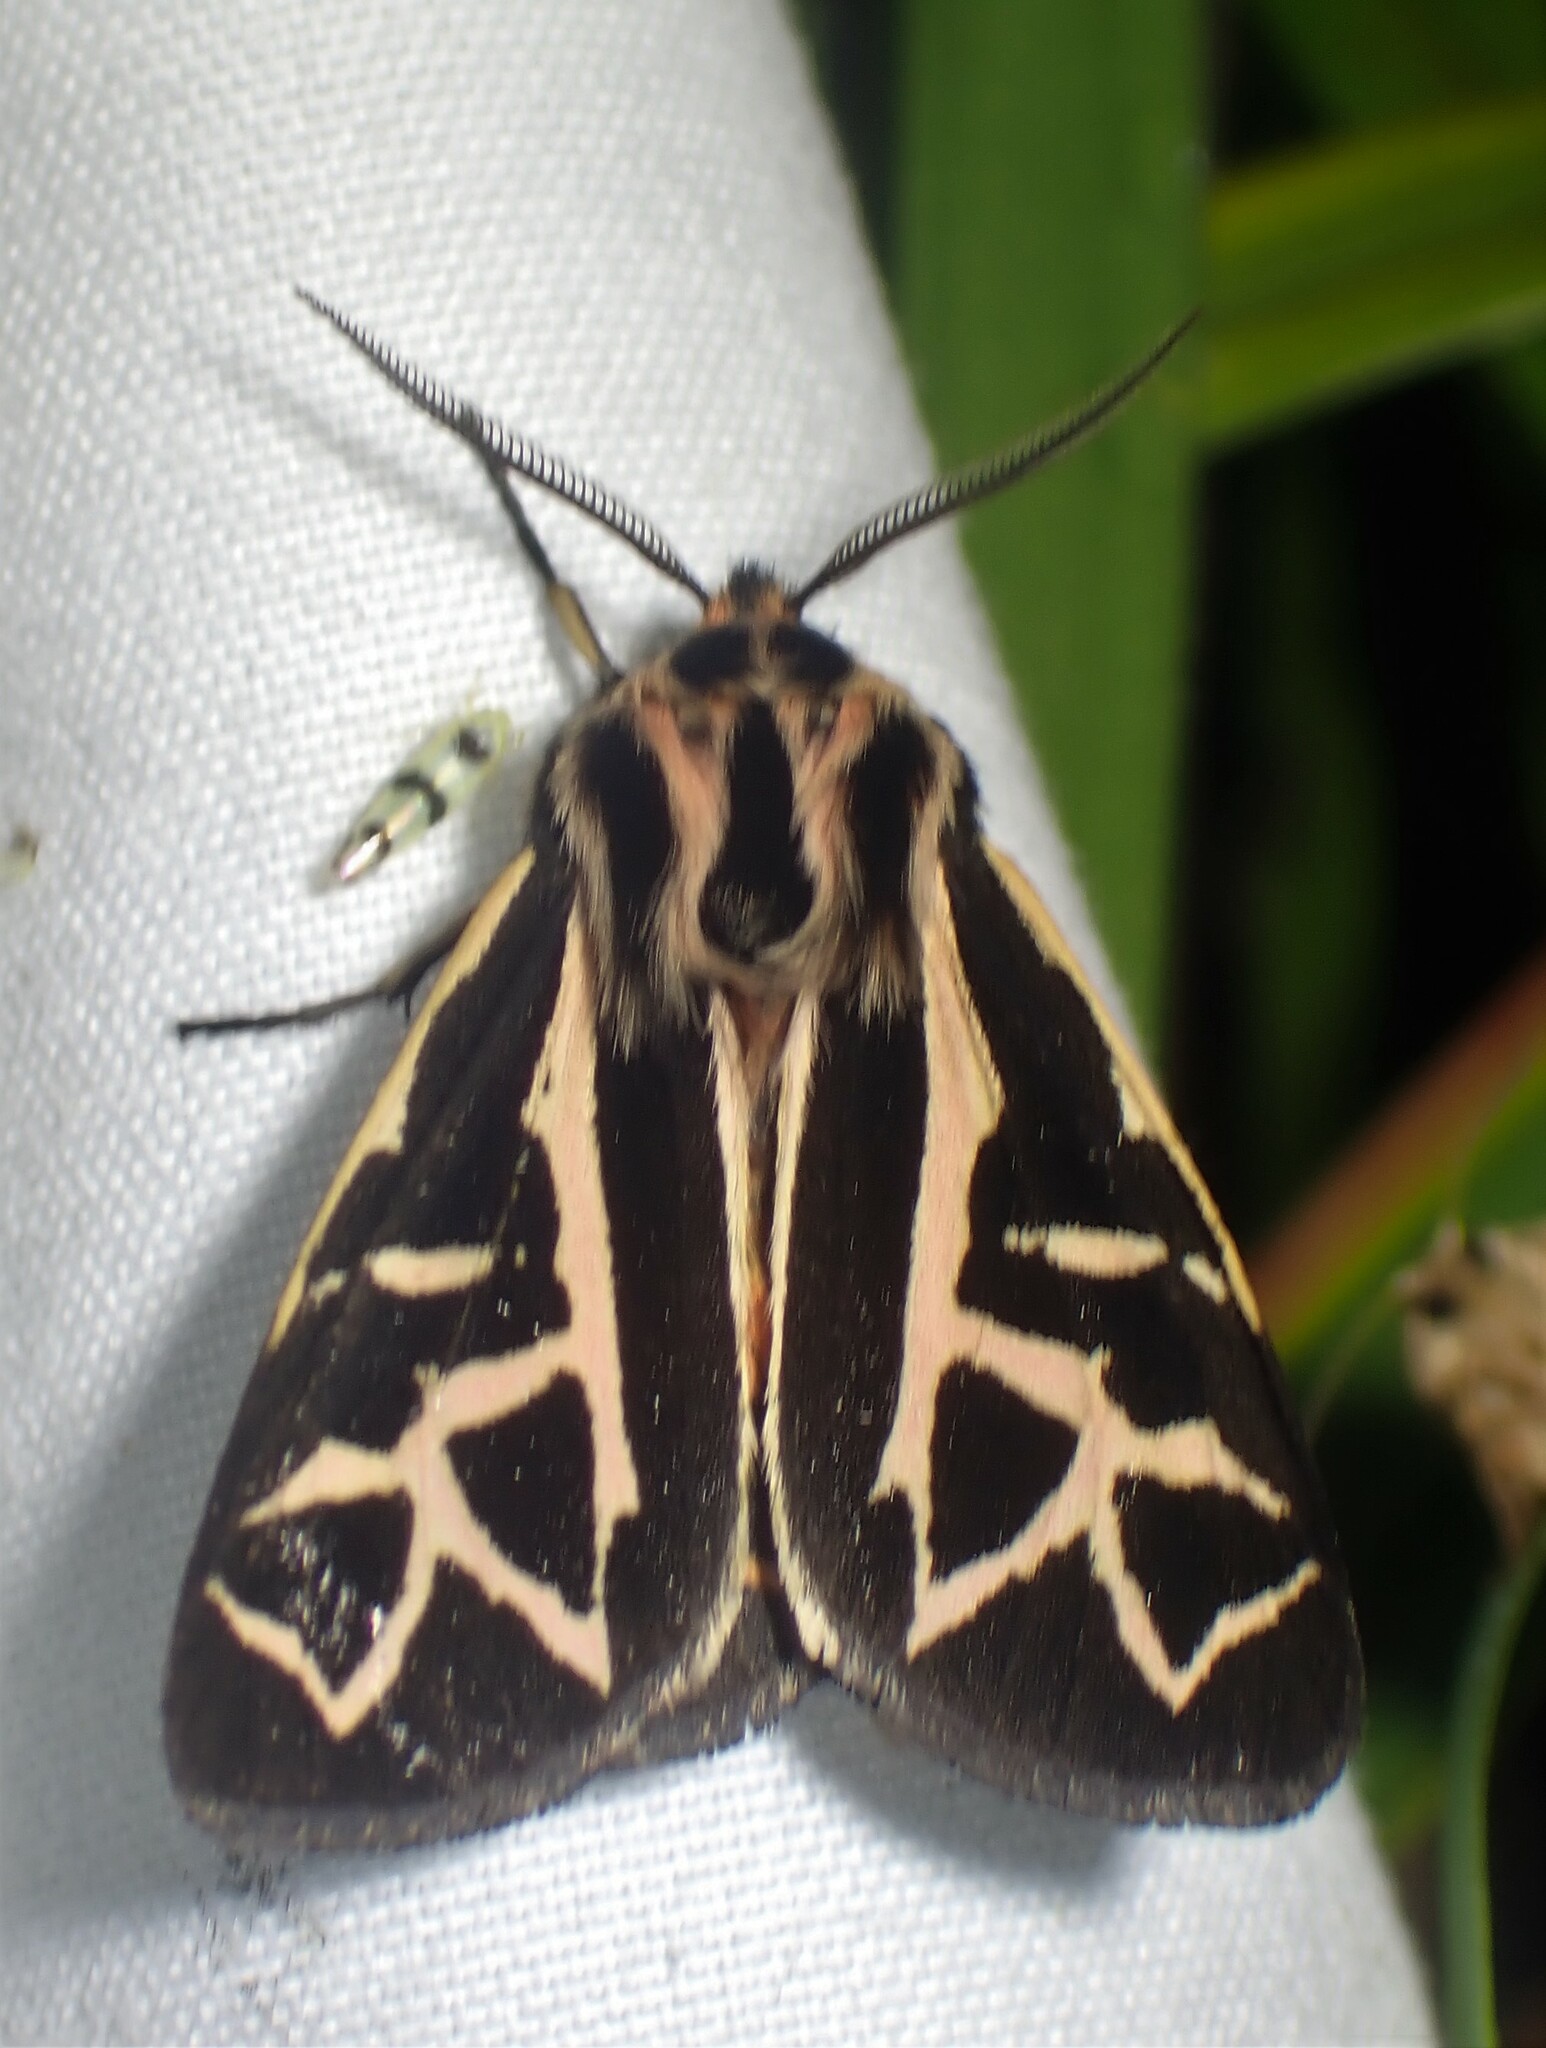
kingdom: Animalia
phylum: Arthropoda
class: Insecta
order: Lepidoptera
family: Erebidae
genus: Apantesis
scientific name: Apantesis
